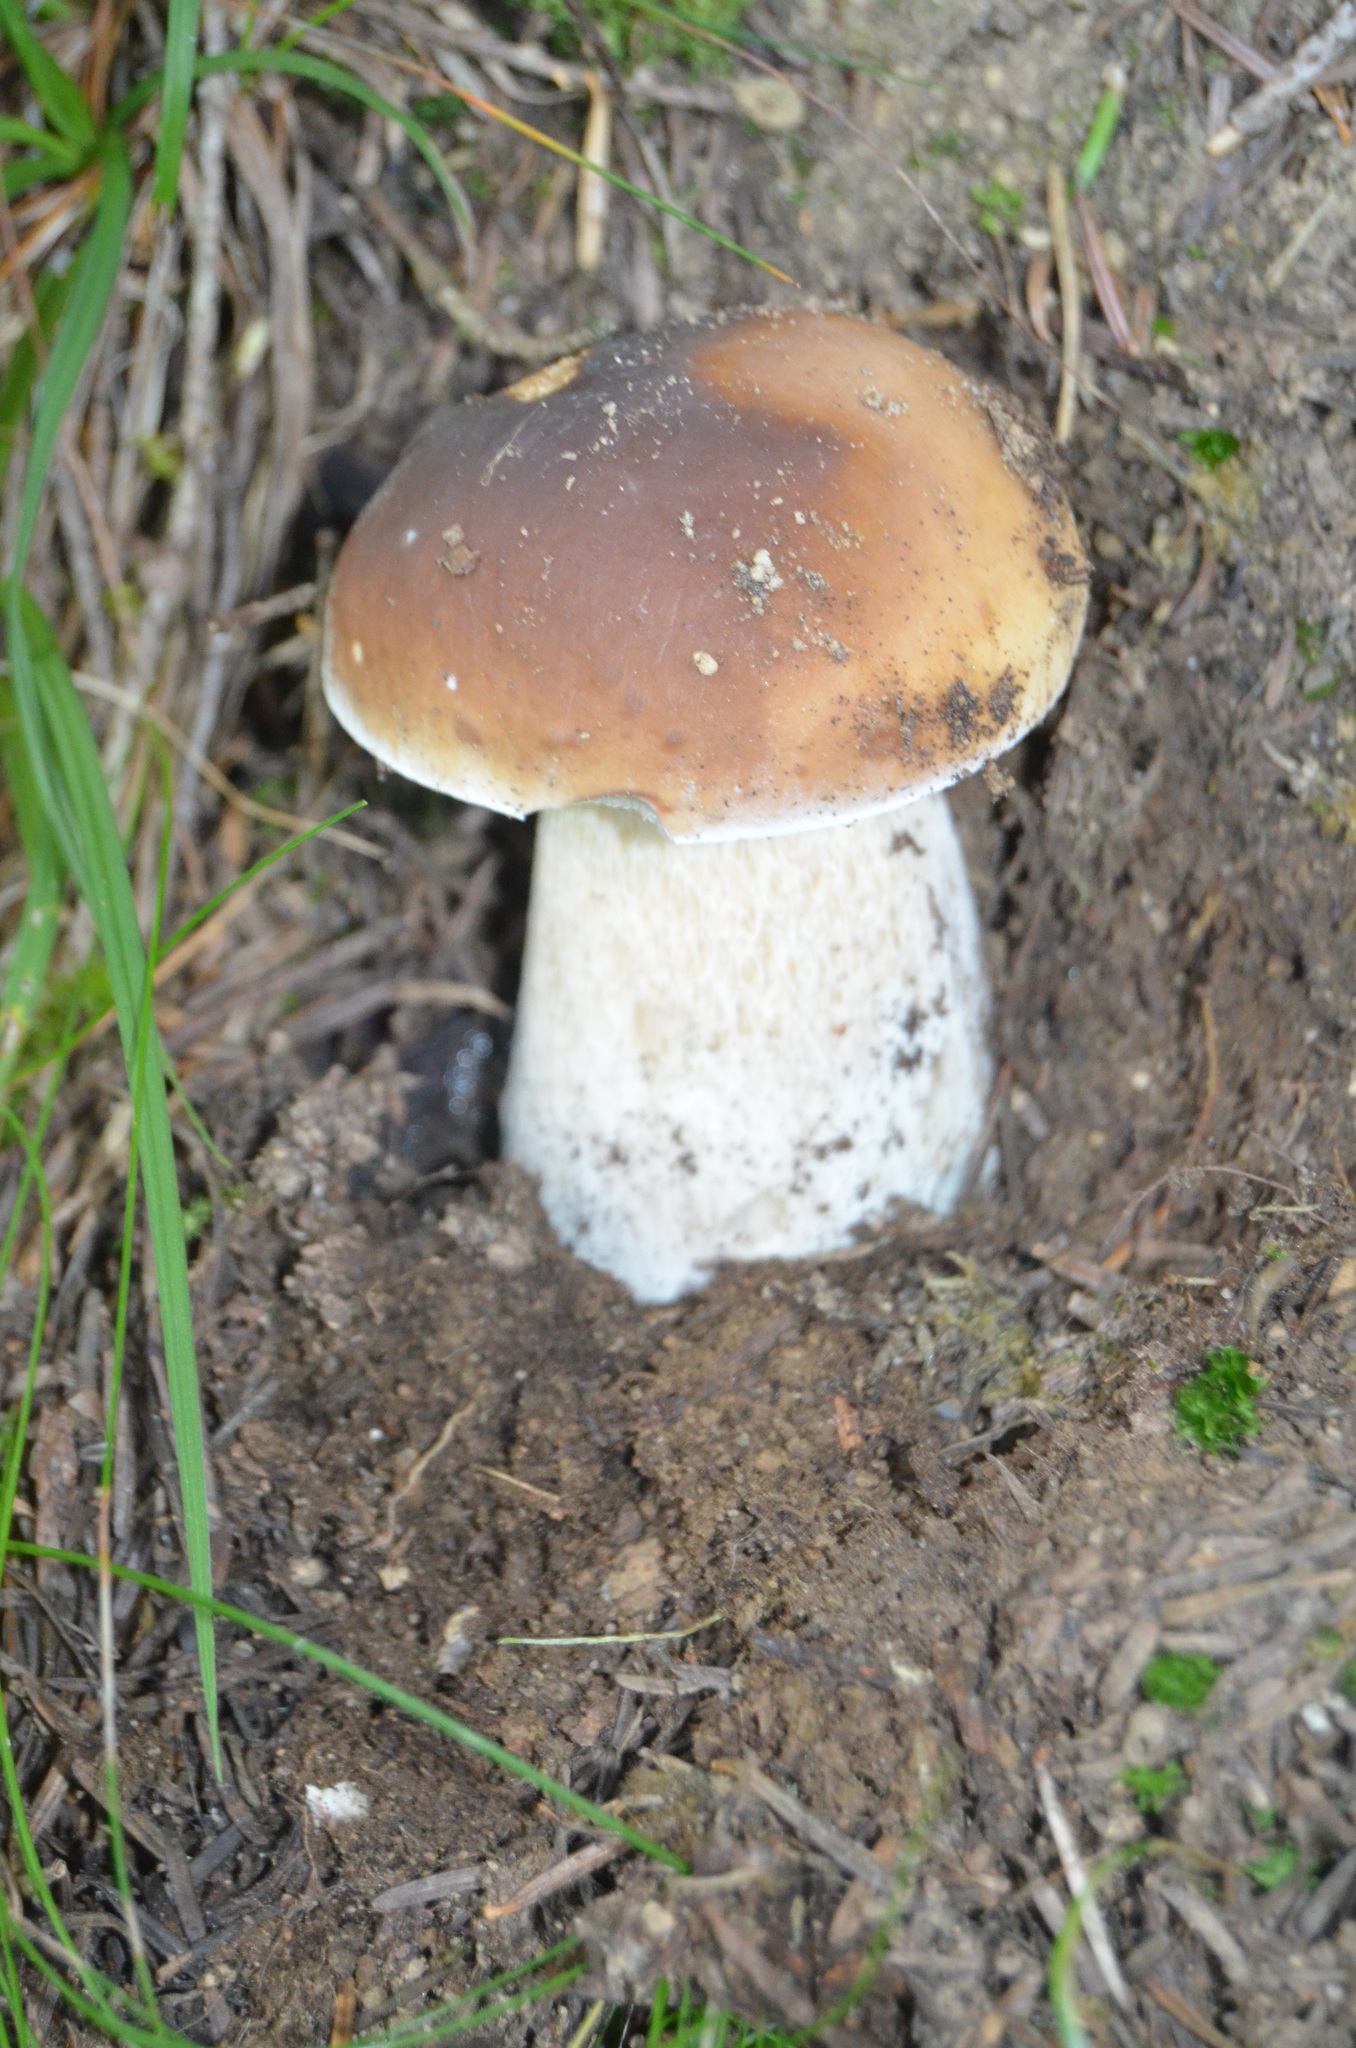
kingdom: Fungi
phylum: Basidiomycota
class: Agaricomycetes
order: Boletales
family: Boletaceae
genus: Boletus
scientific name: Boletus edulis
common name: Cep
